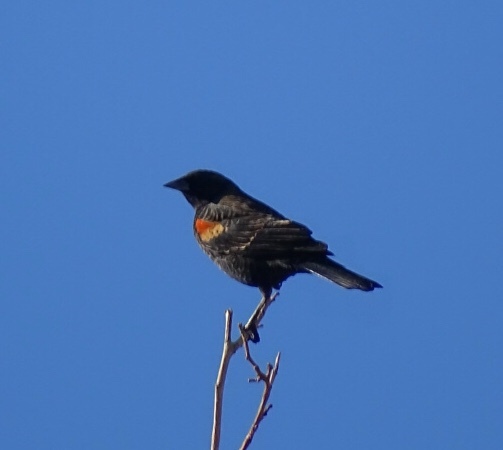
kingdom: Animalia
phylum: Chordata
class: Aves
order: Passeriformes
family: Icteridae
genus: Agelaius
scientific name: Agelaius phoeniceus
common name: Red-winged blackbird
